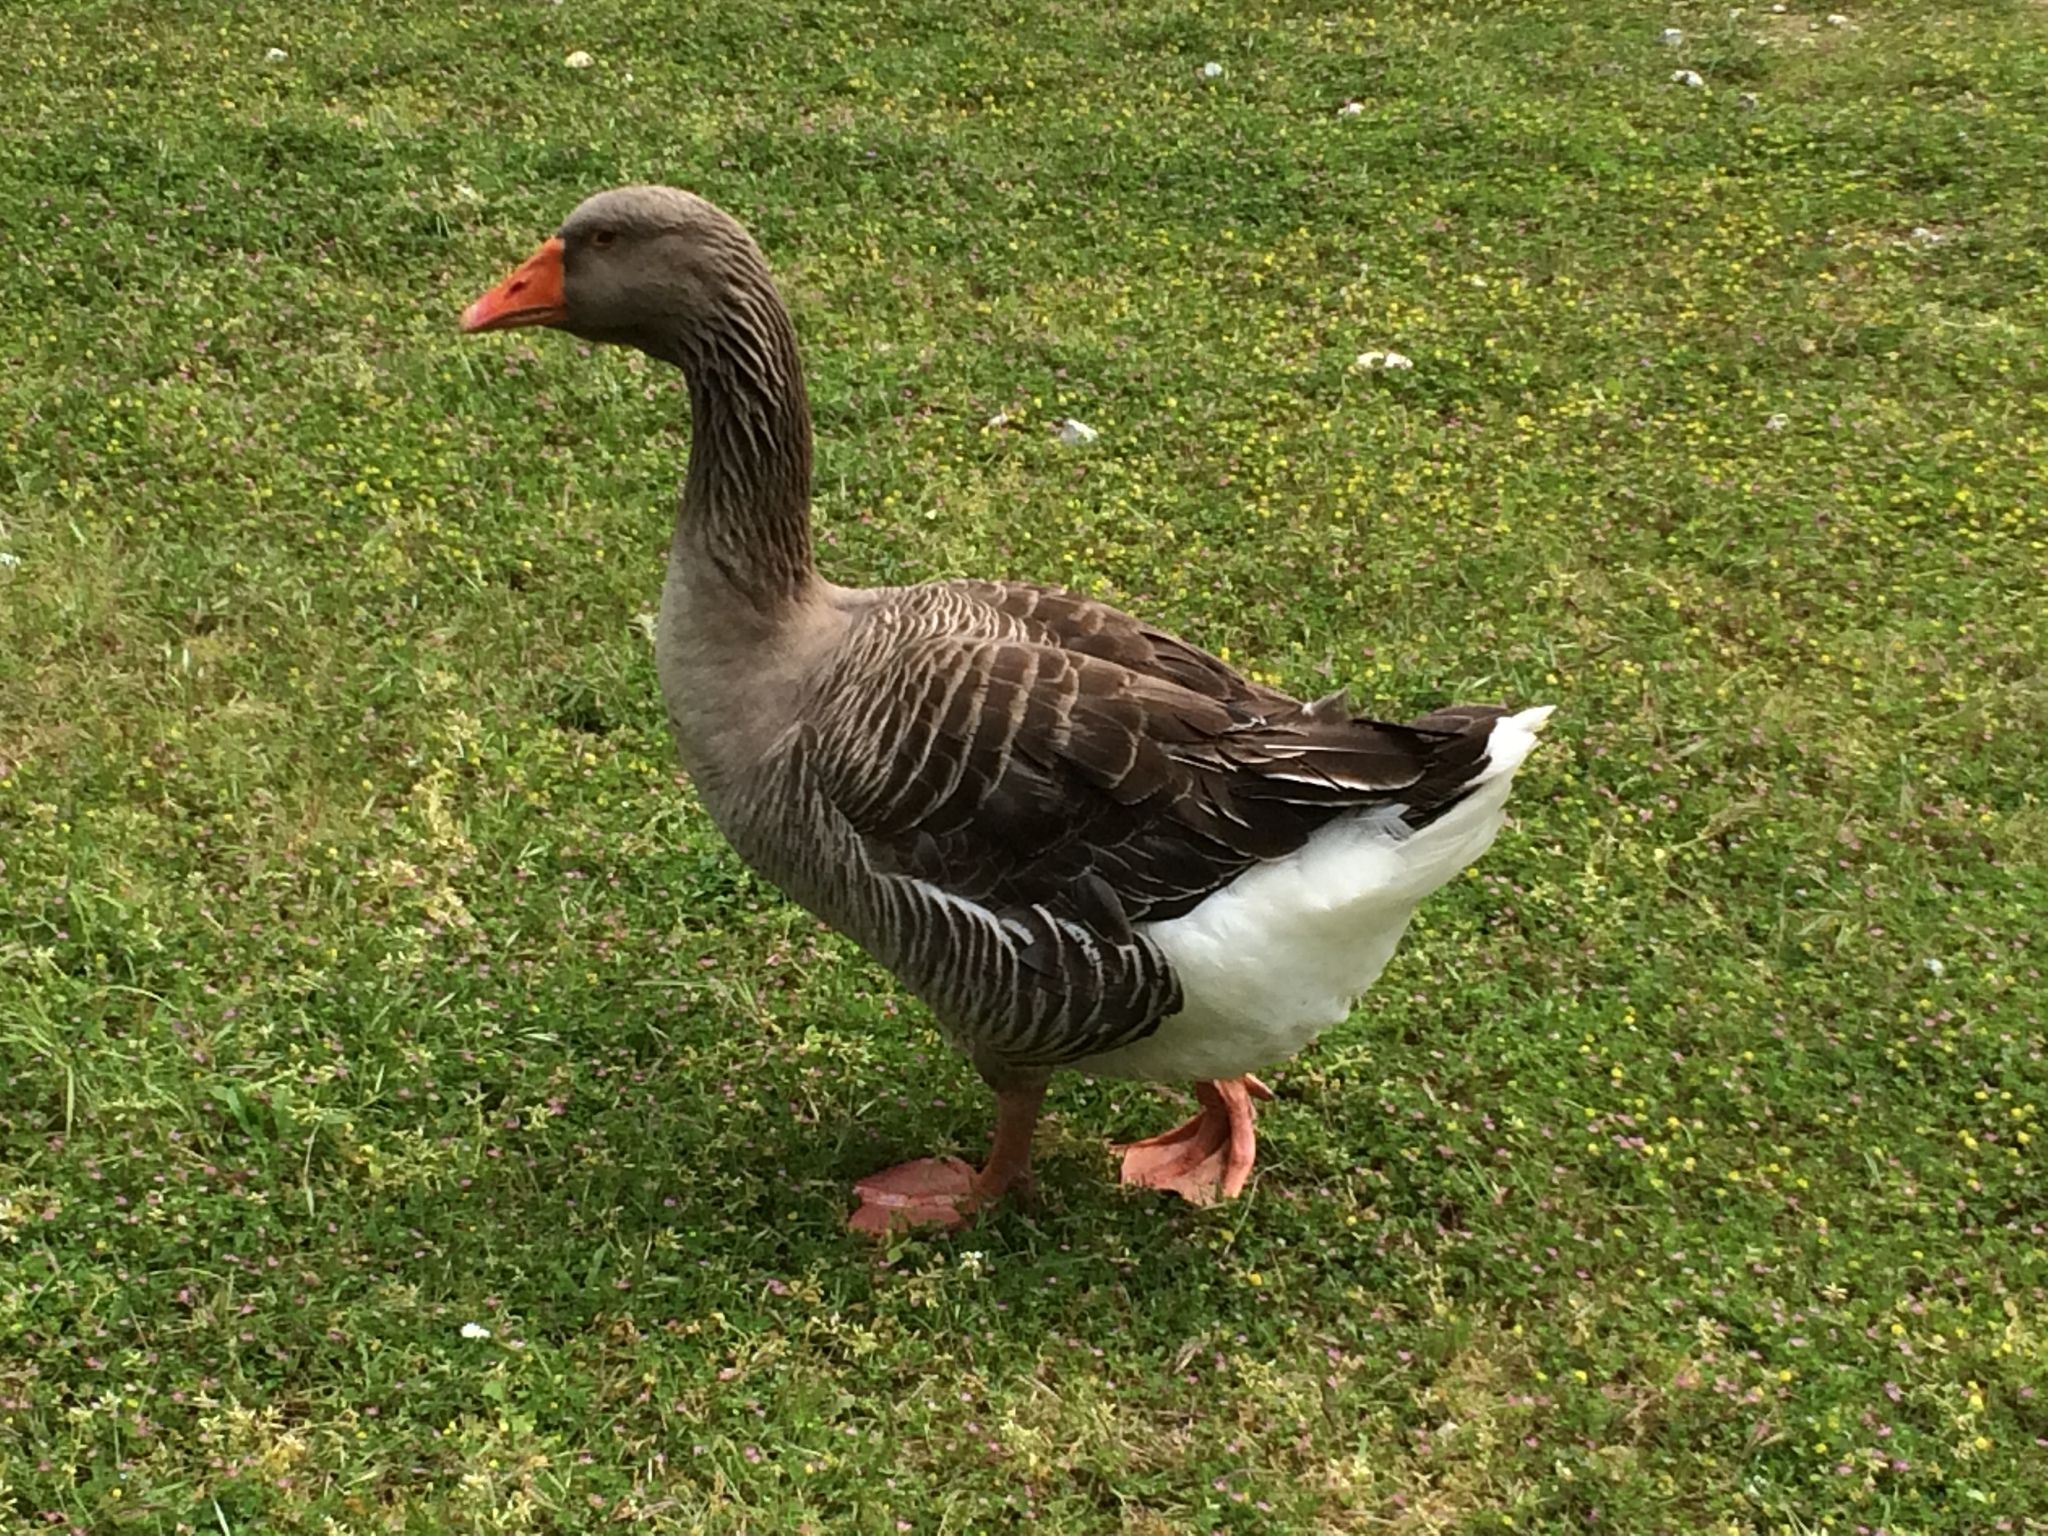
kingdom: Animalia
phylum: Chordata
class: Aves
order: Anseriformes
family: Anatidae
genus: Anser
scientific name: Anser anser
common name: Greylag goose
